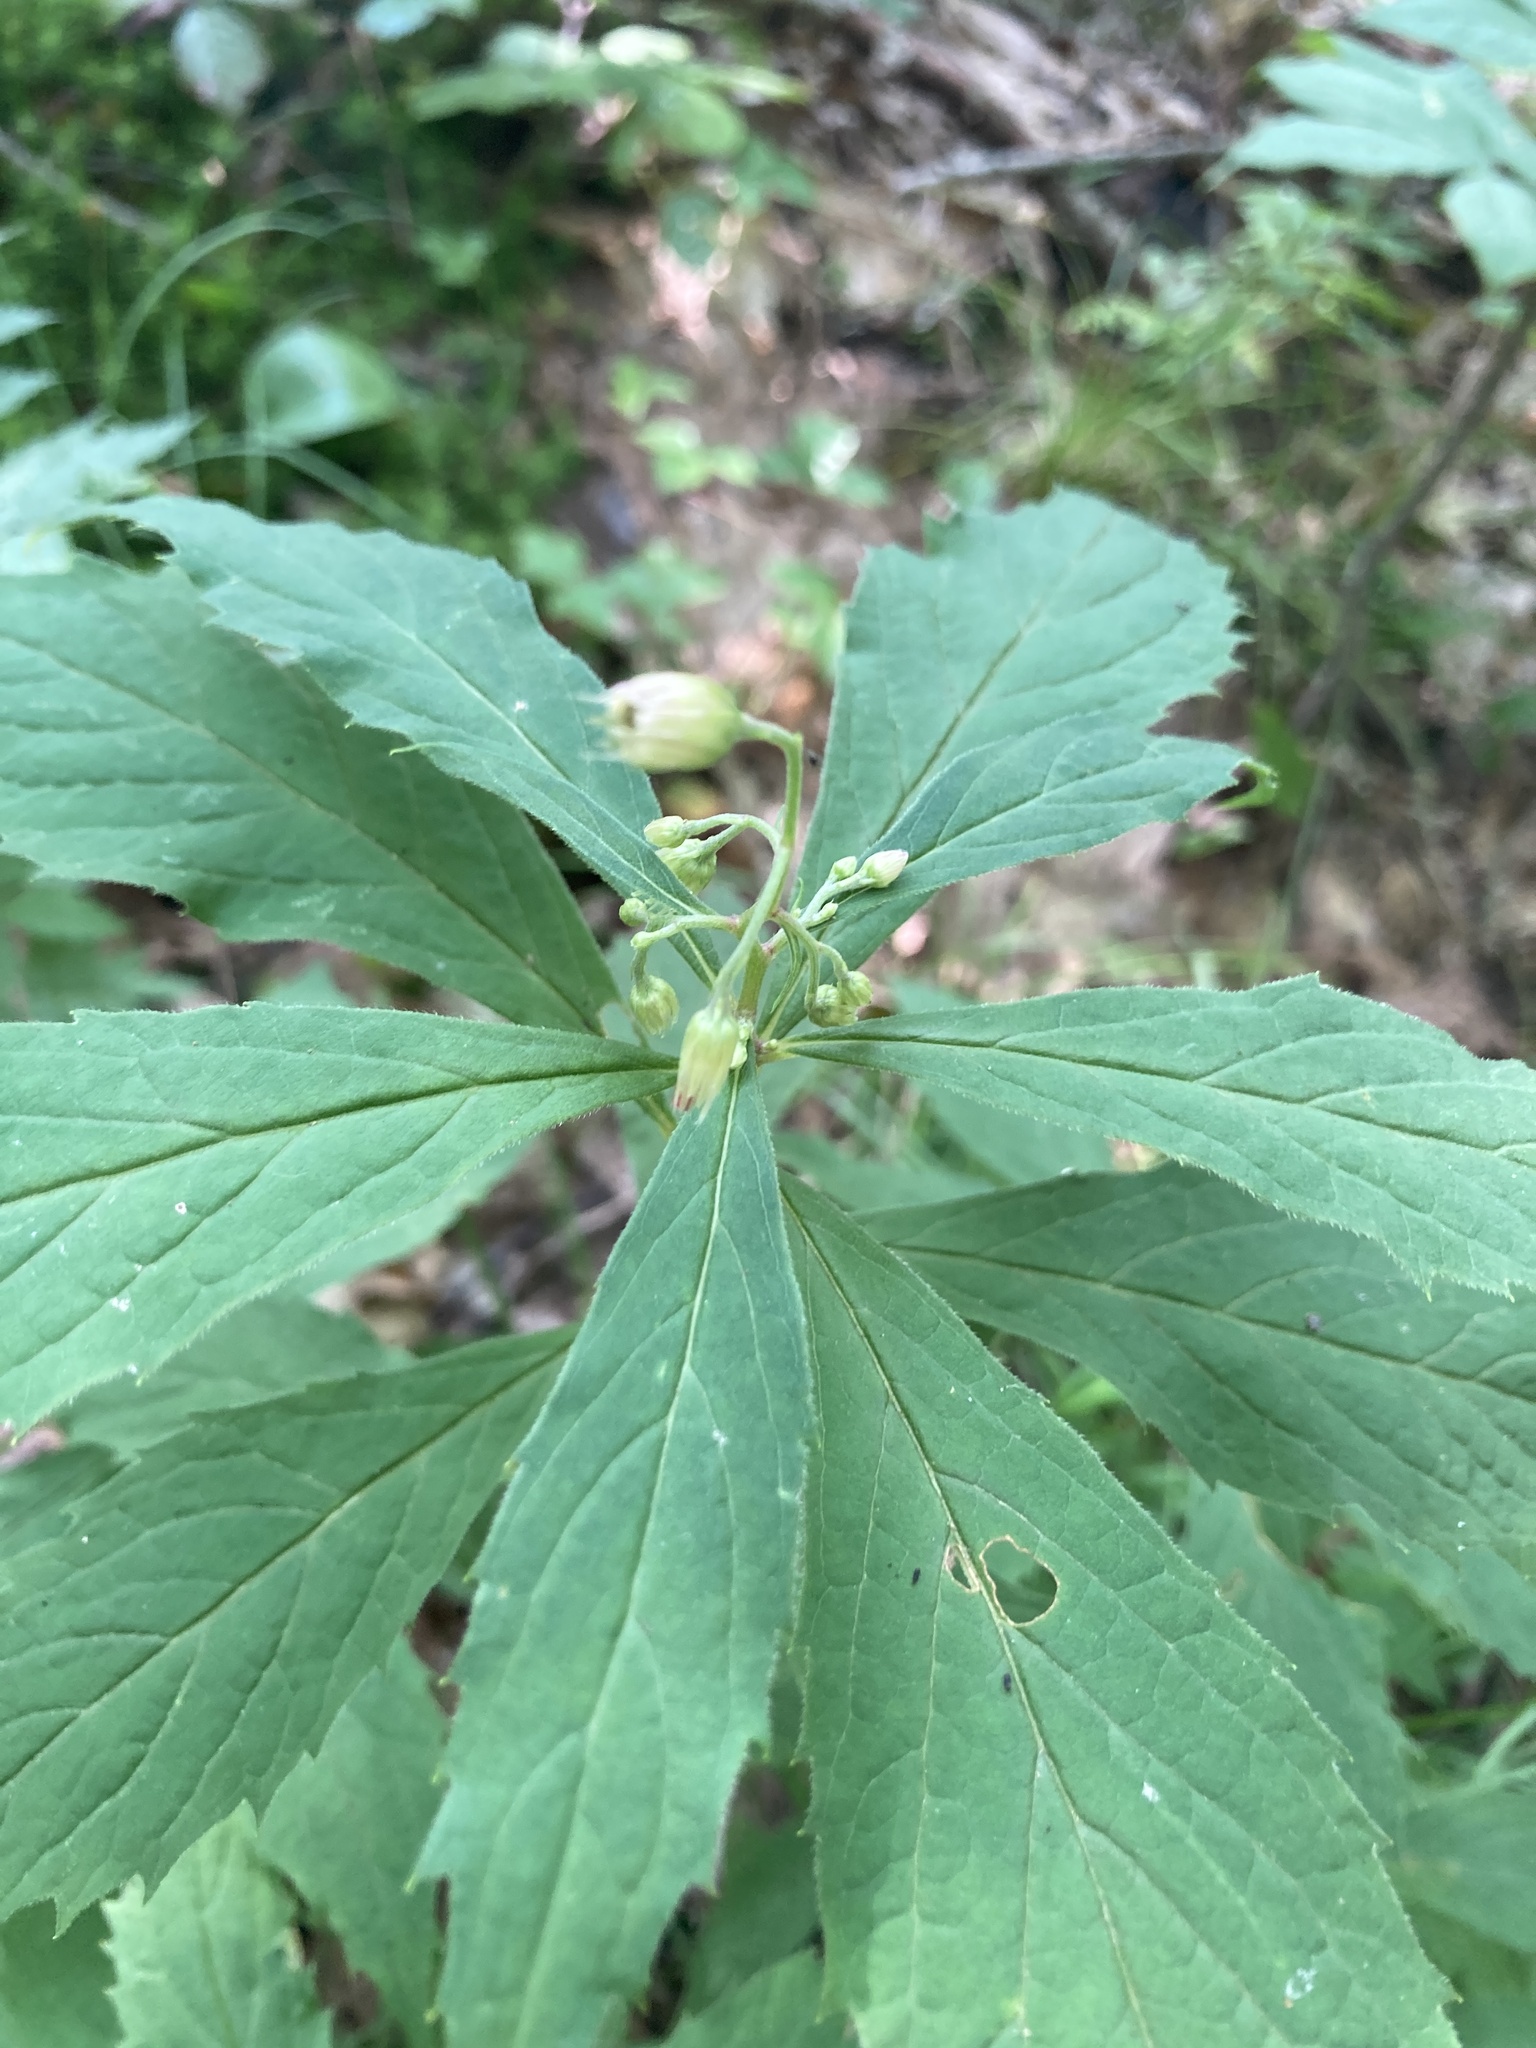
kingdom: Plantae
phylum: Tracheophyta
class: Magnoliopsida
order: Asterales
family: Asteraceae
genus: Oclemena
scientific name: Oclemena acuminata
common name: Mountain aster
